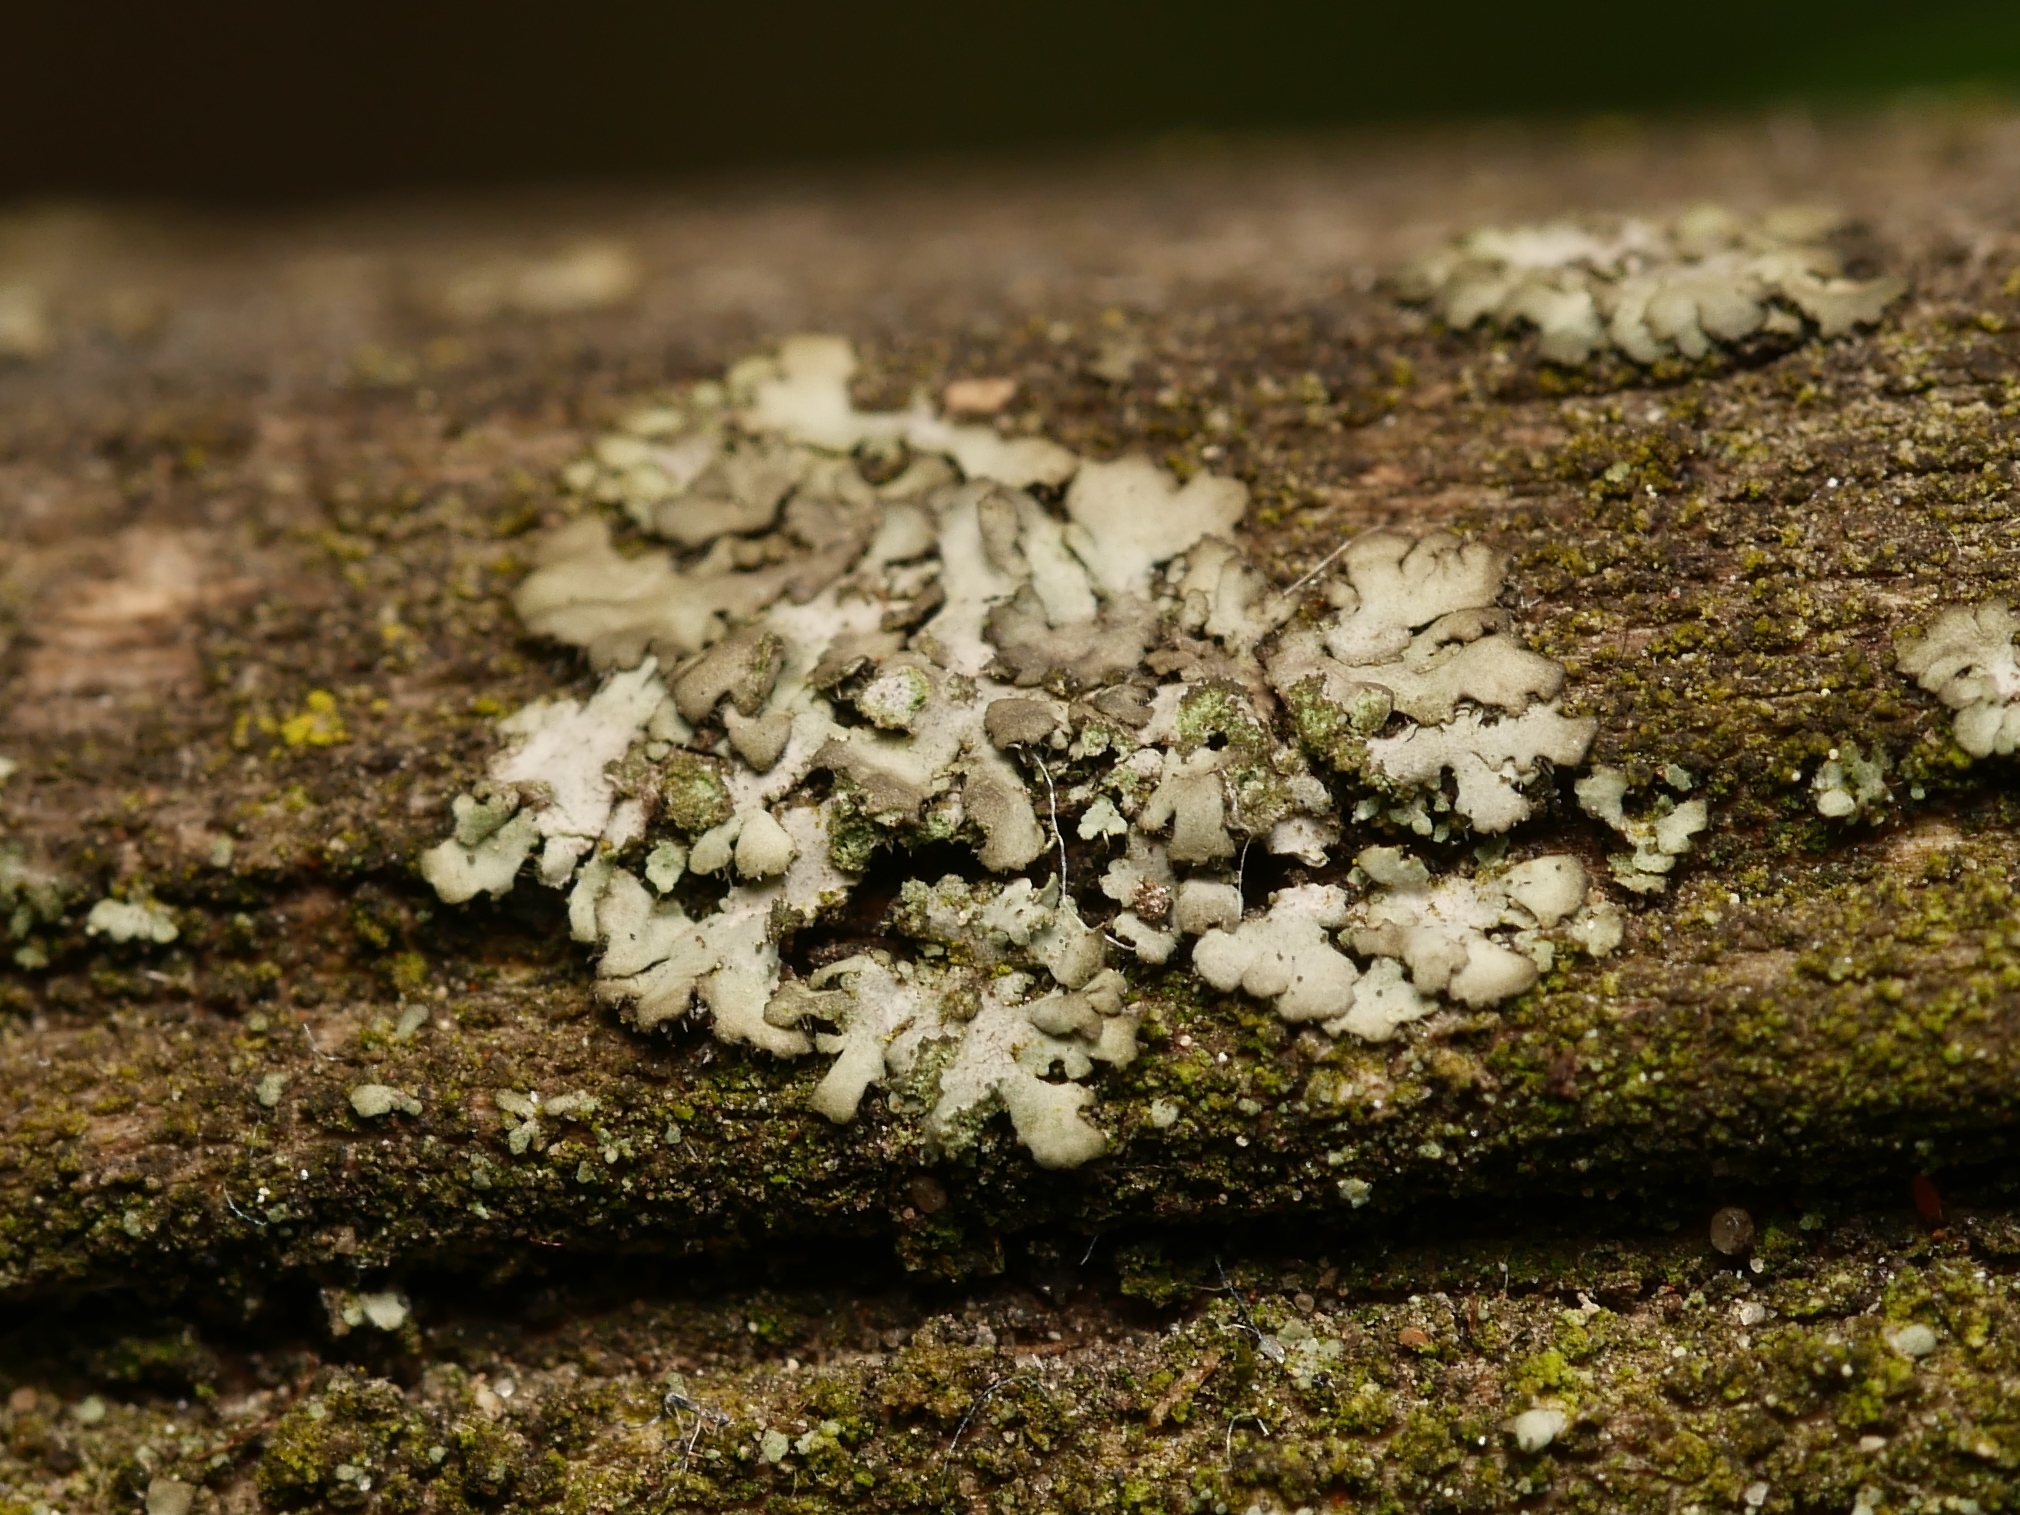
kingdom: Fungi
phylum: Ascomycota
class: Lecanoromycetes
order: Caliciales
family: Physciaceae
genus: Phaeophyscia
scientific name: Phaeophyscia orbicularis
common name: Mealy shadow lichen
